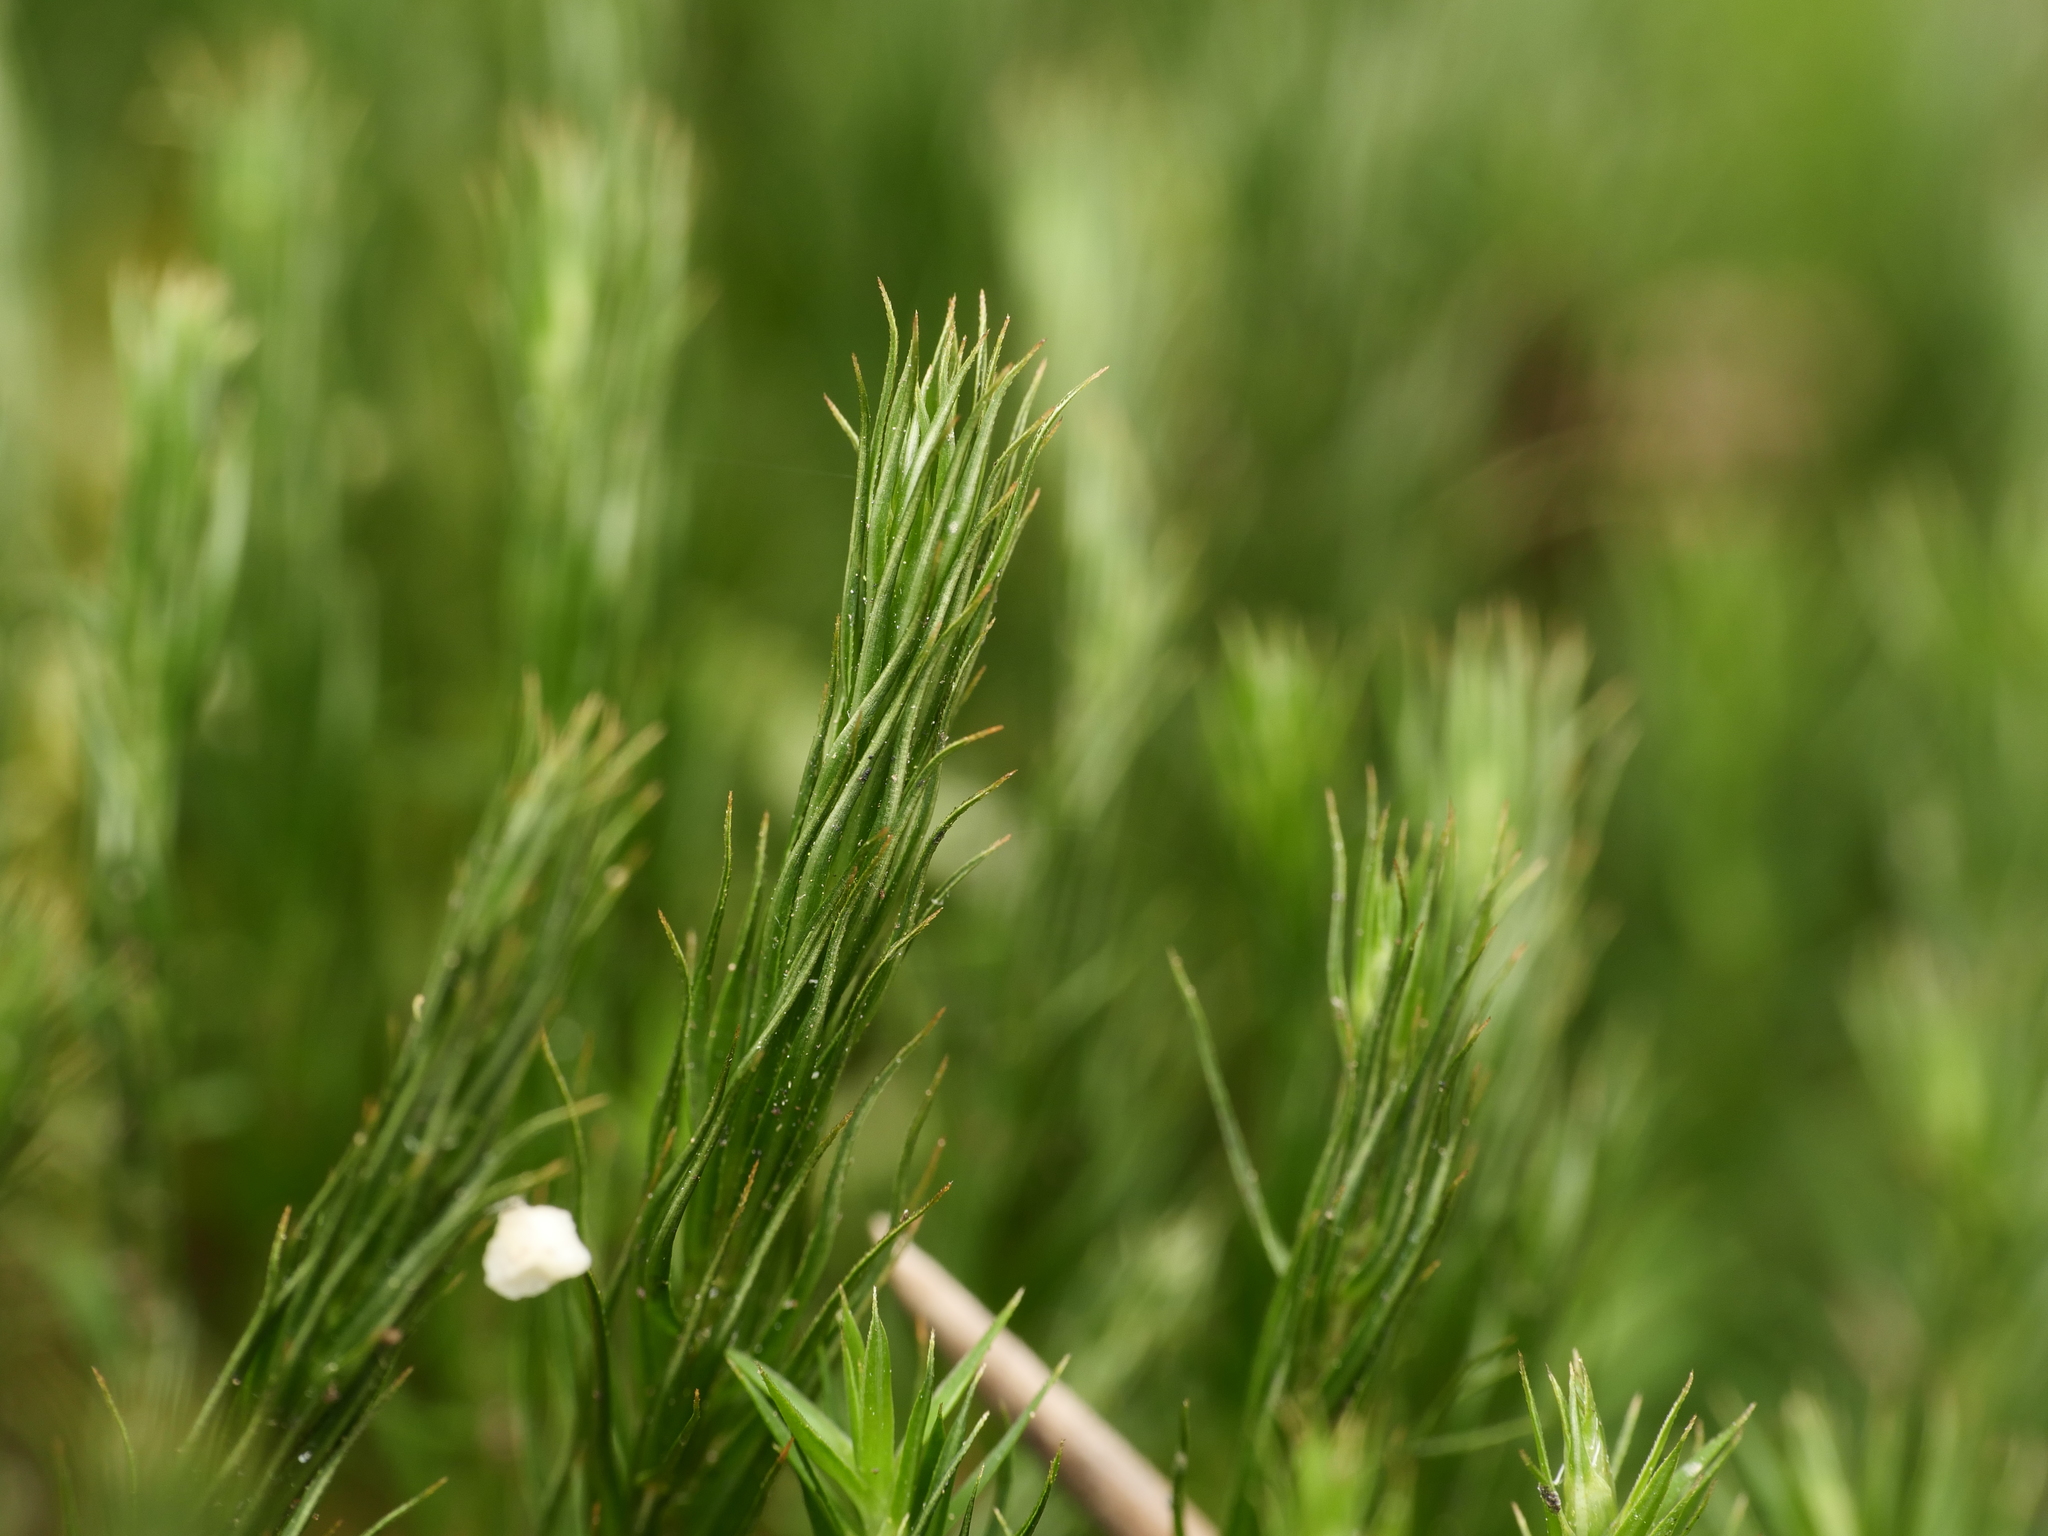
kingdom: Plantae
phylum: Bryophyta
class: Polytrichopsida
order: Polytrichales
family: Polytrichaceae
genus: Polytrichum
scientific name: Polytrichum formosum
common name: Bank haircap moss
